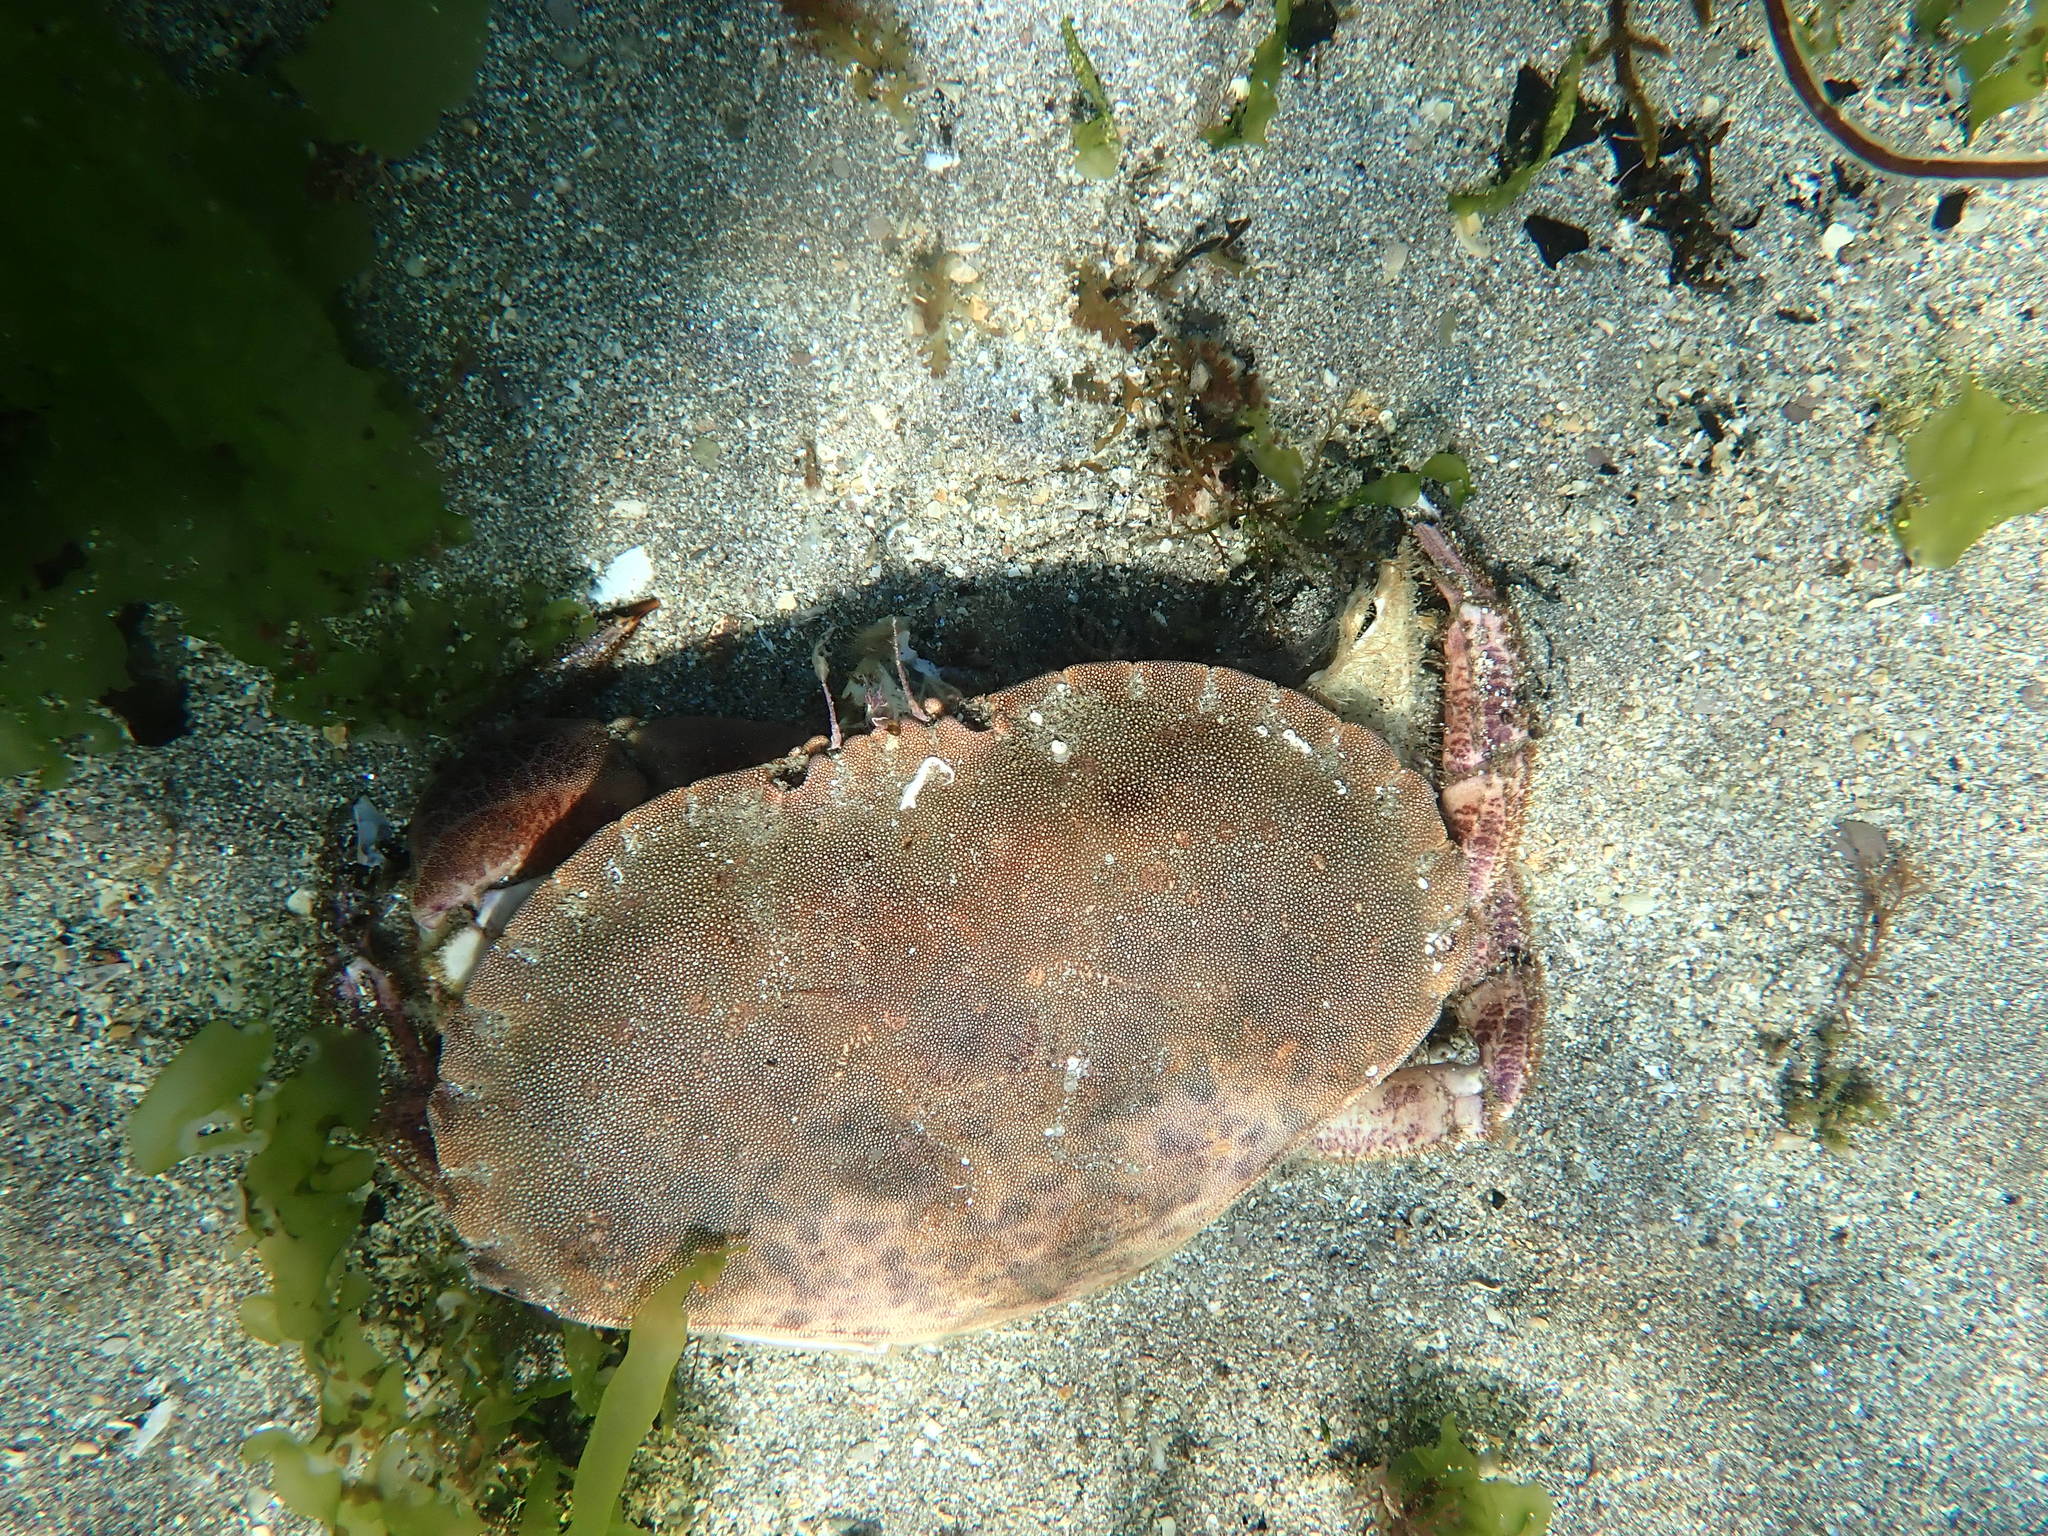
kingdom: Animalia
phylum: Arthropoda
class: Malacostraca
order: Decapoda
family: Cancridae
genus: Cancer
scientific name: Cancer pagurus
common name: Edible crab
